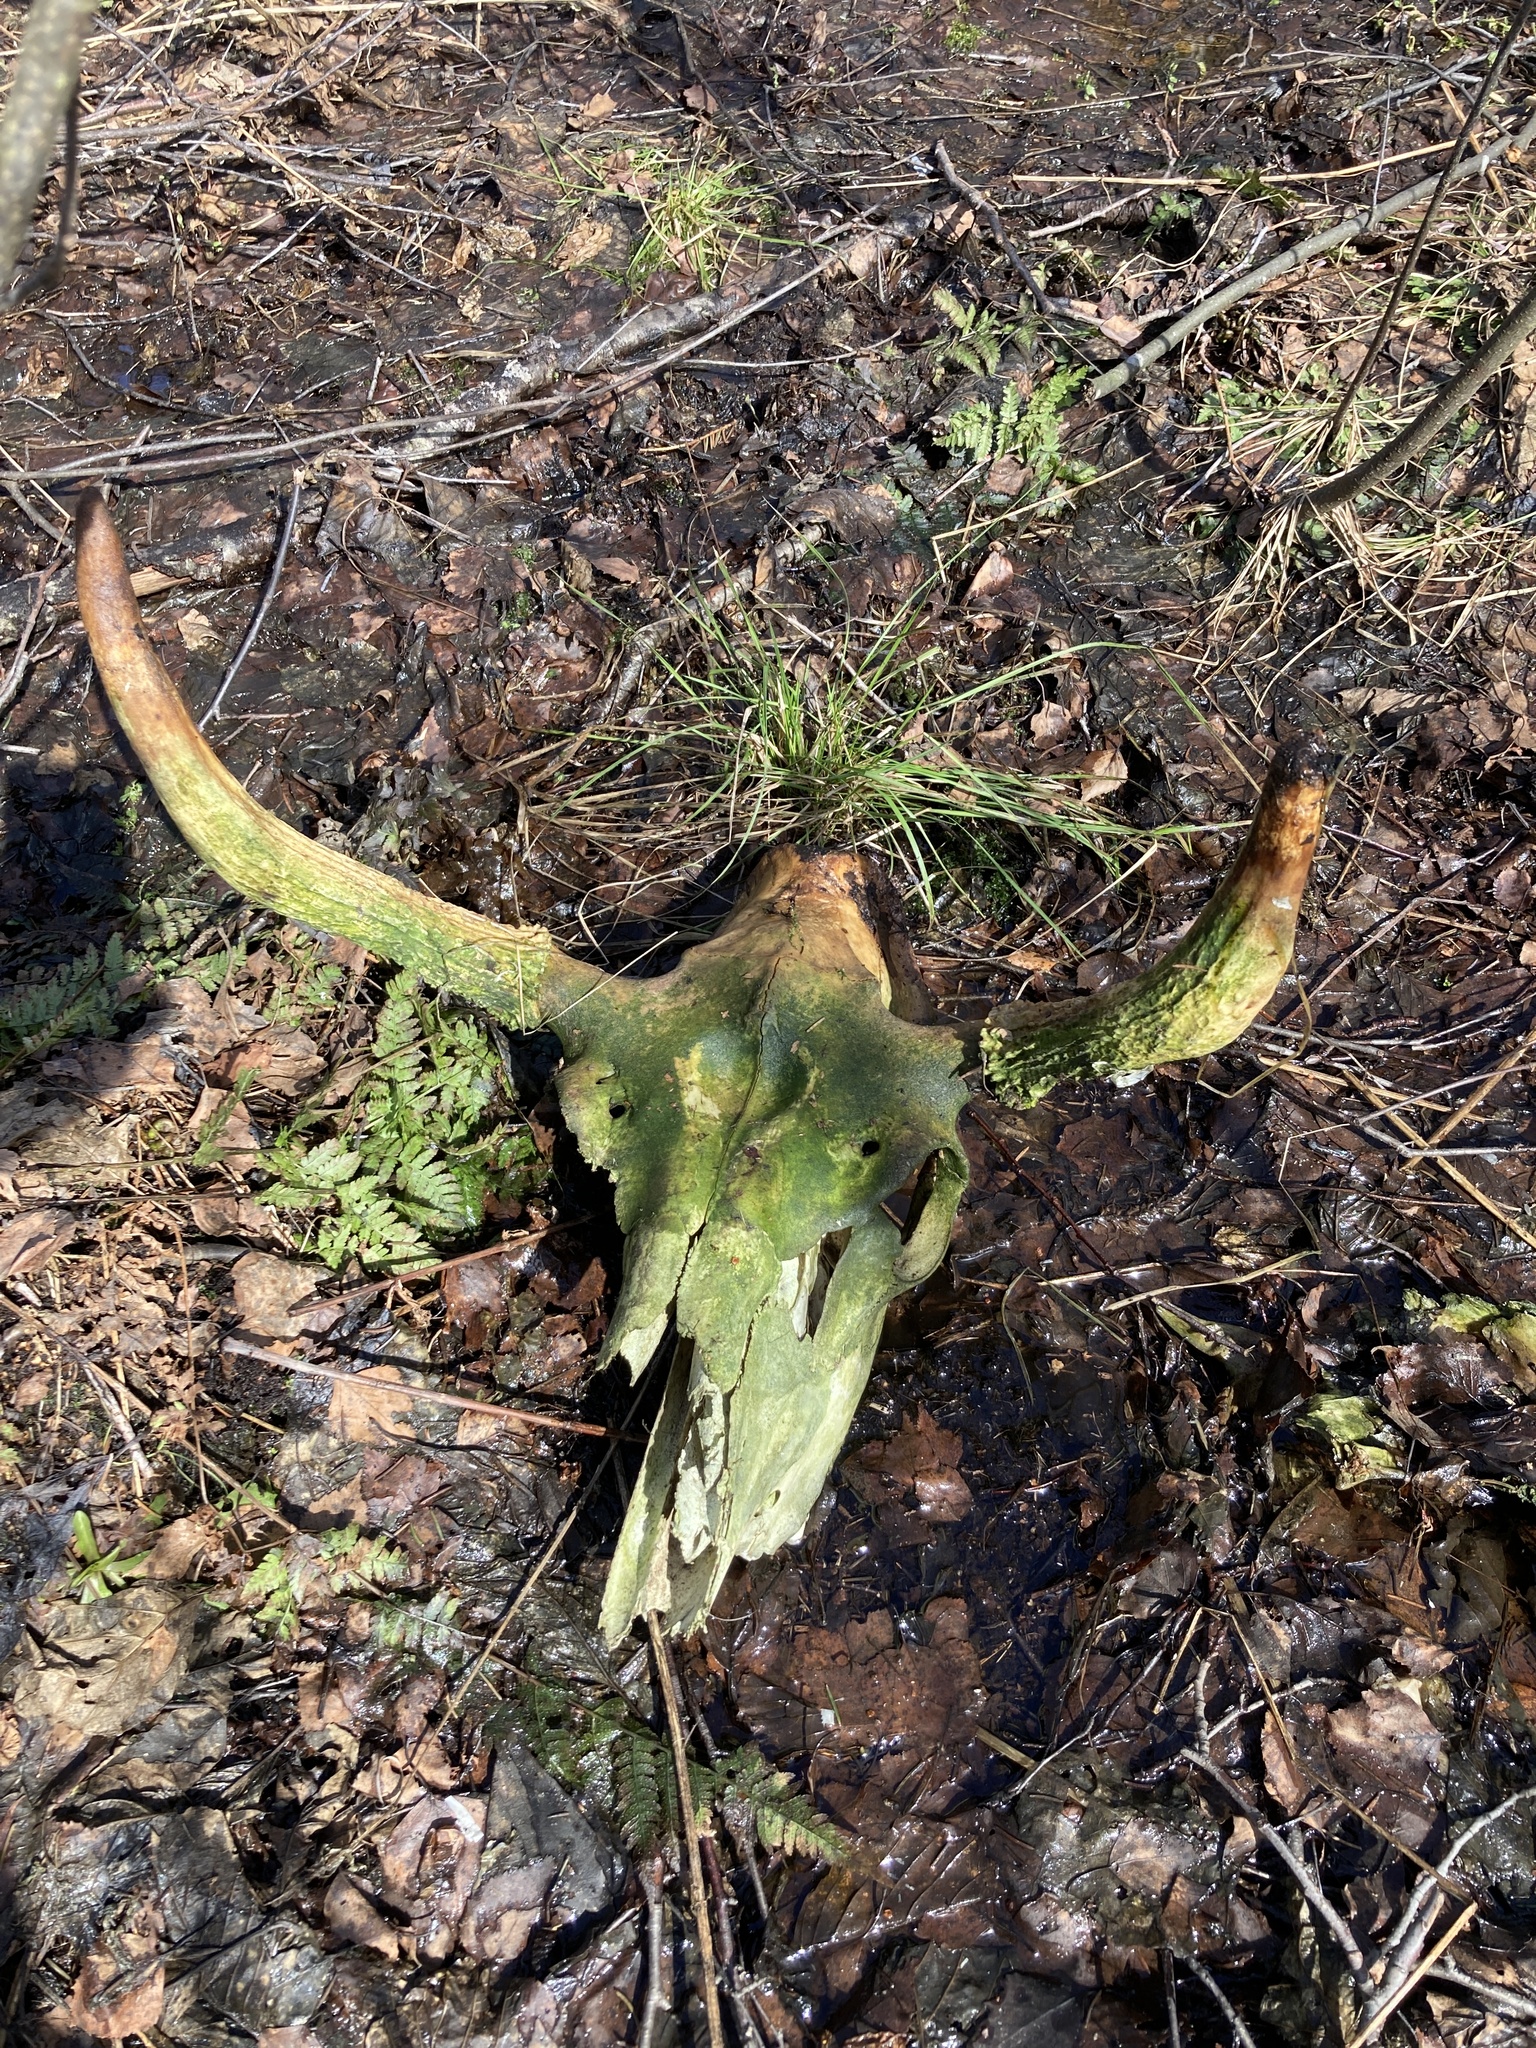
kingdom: Animalia
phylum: Chordata
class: Mammalia
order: Artiodactyla
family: Cervidae
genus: Alces
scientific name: Alces alces
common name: Moose
